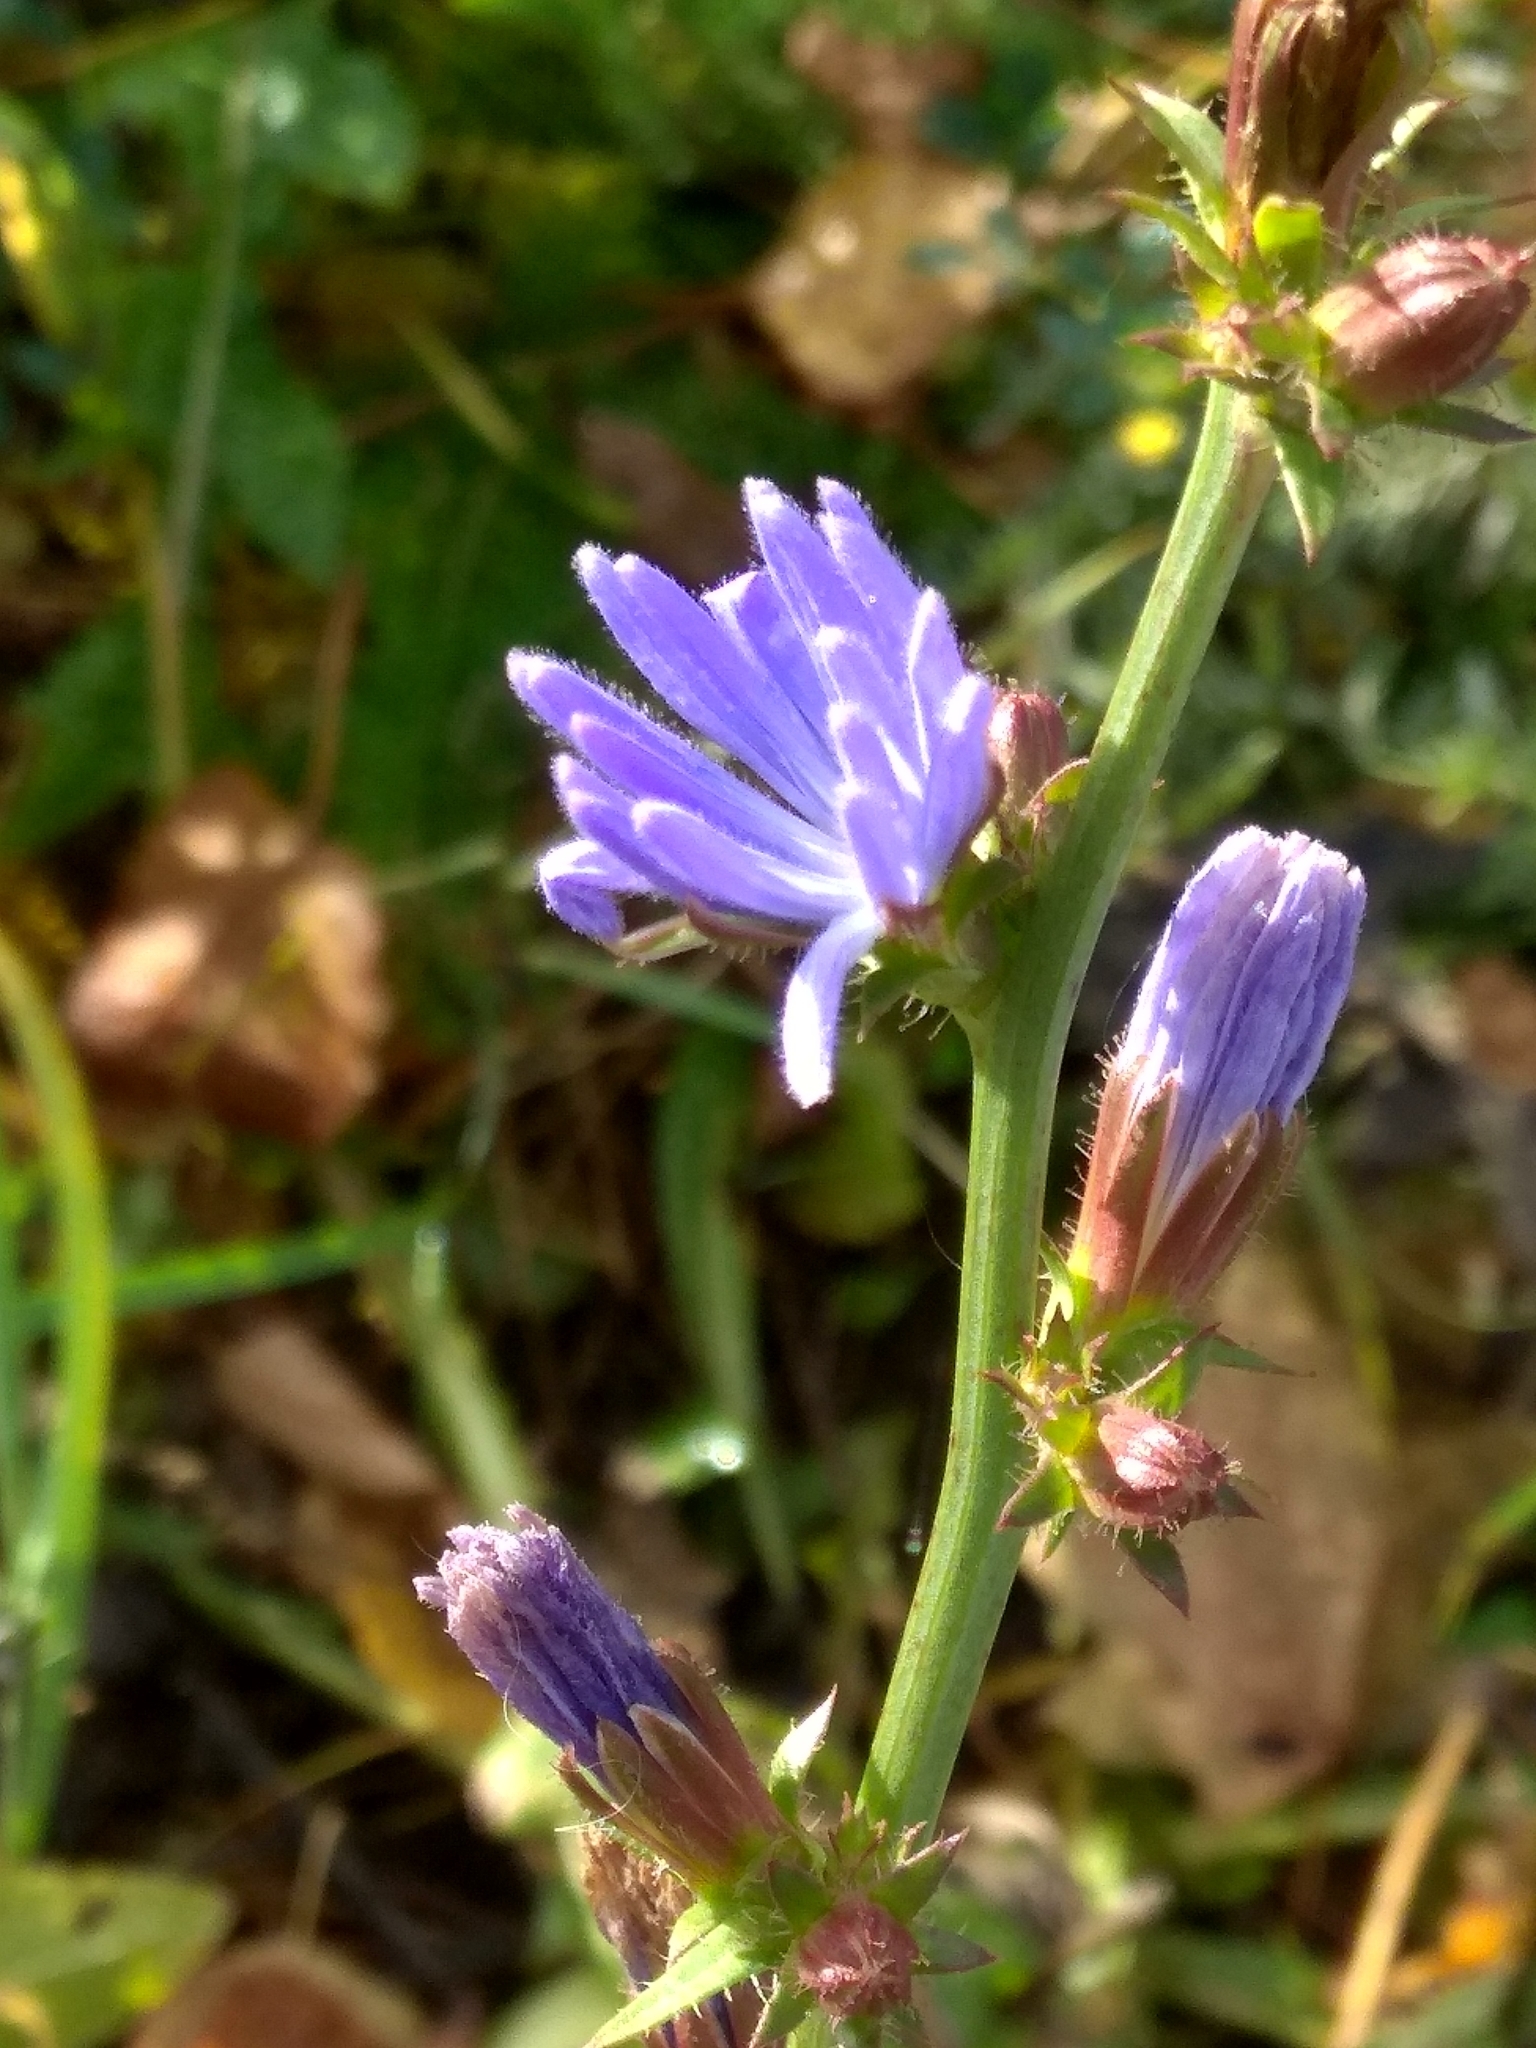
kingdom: Plantae
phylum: Tracheophyta
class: Magnoliopsida
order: Asterales
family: Asteraceae
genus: Cichorium
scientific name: Cichorium intybus
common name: Chicory
